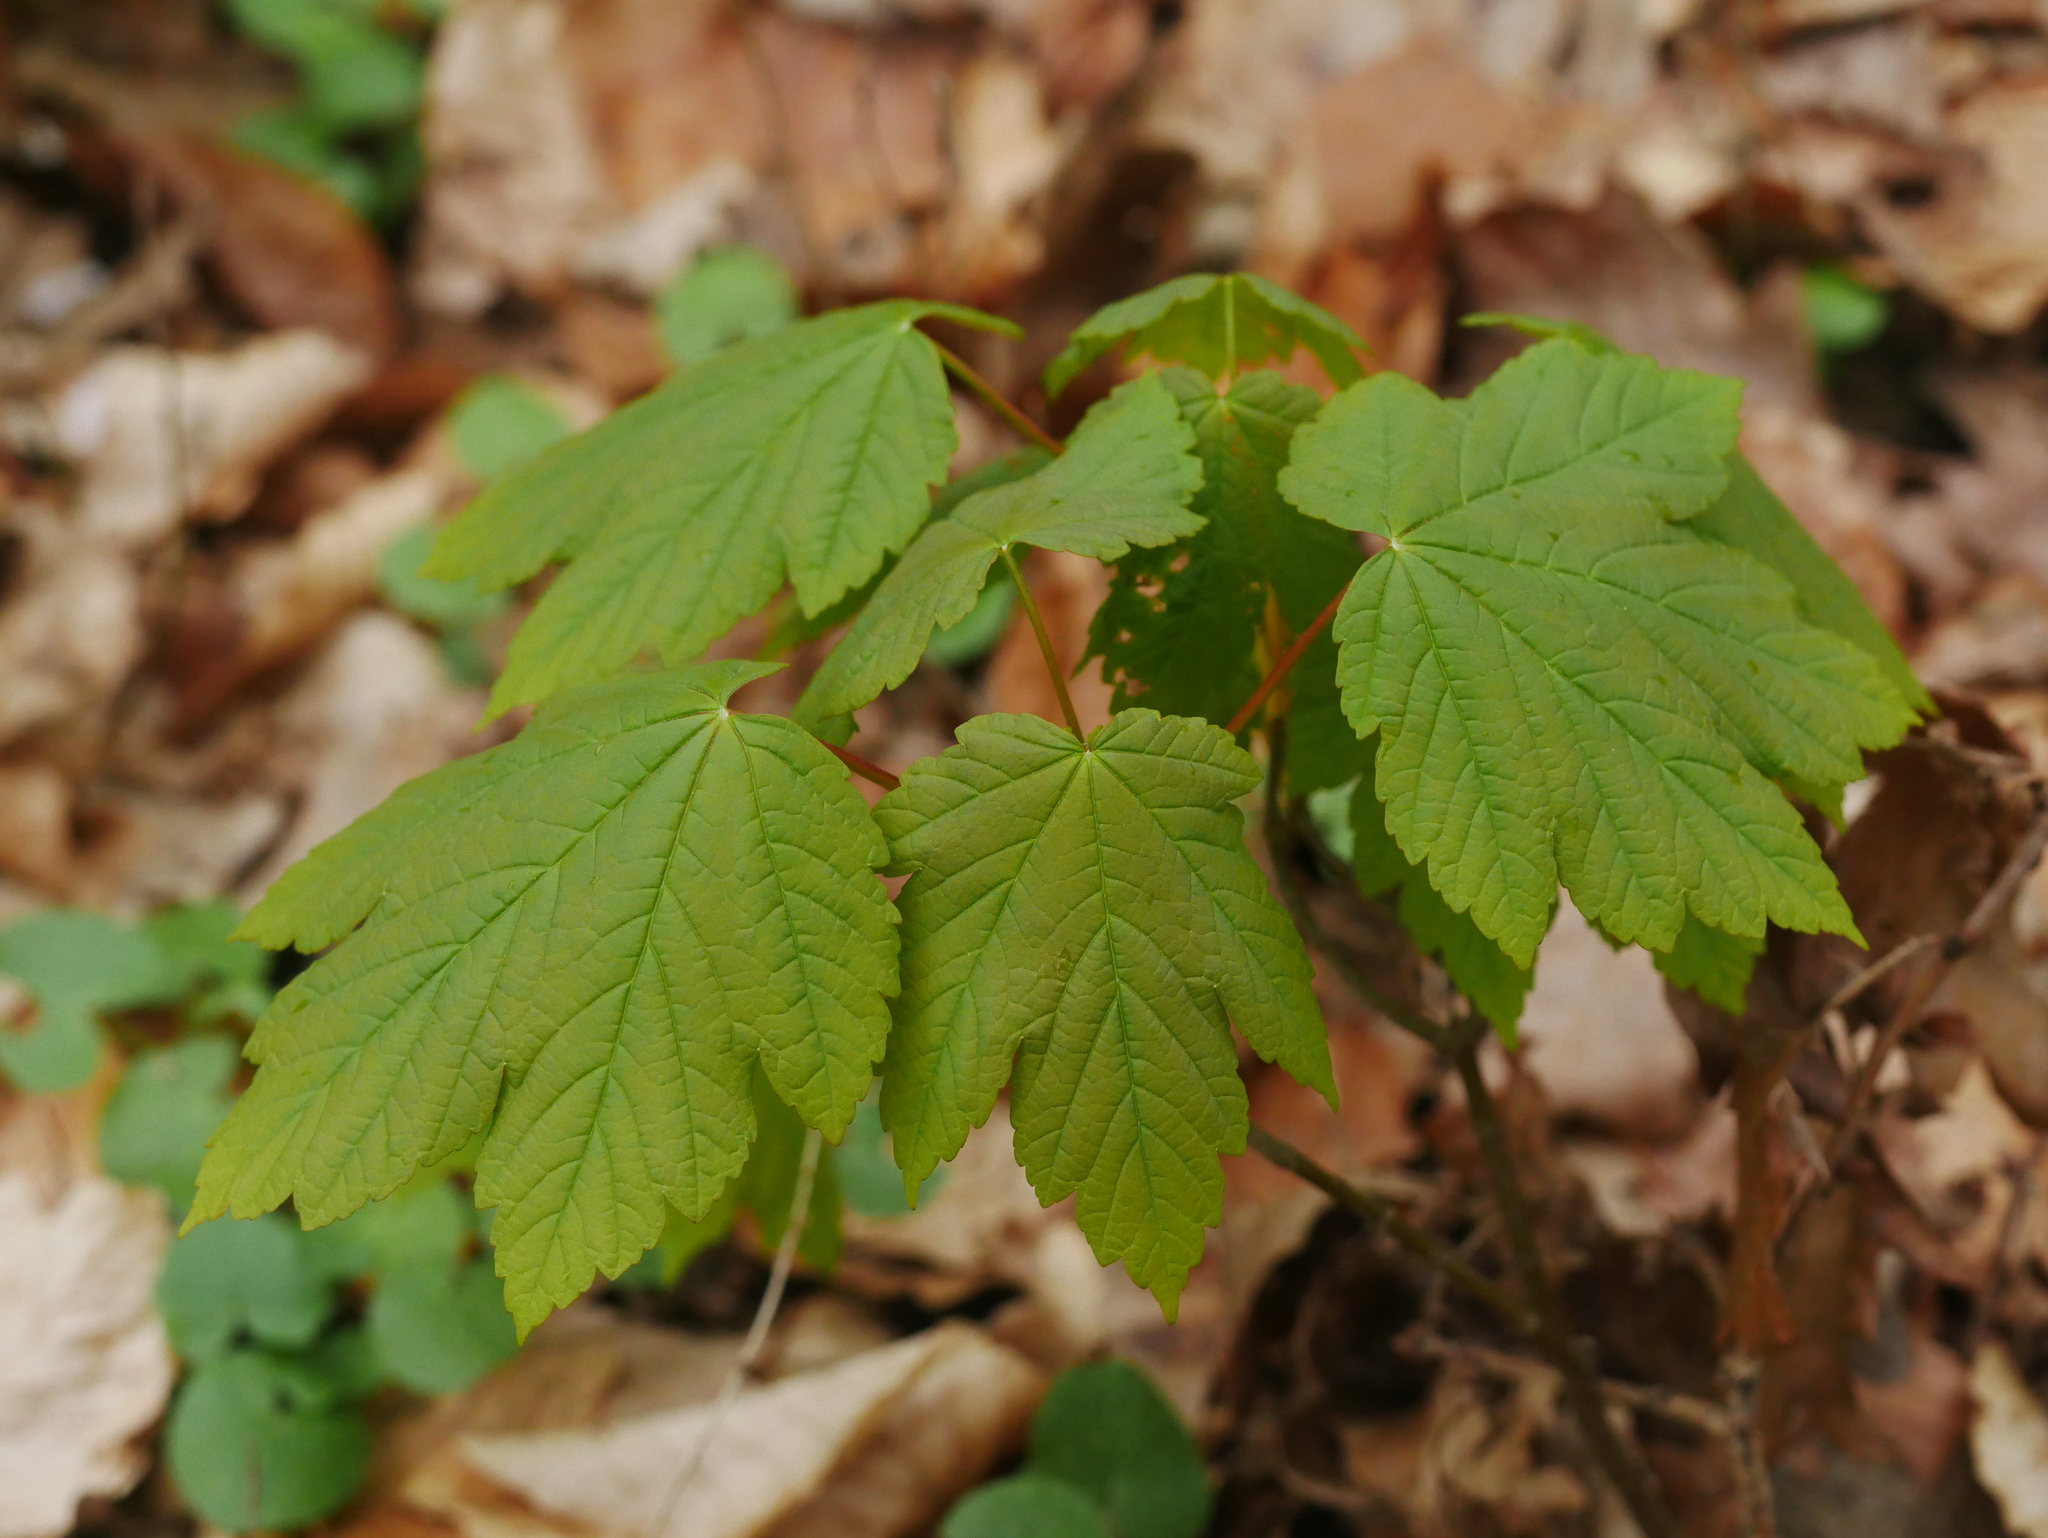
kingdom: Plantae
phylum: Tracheophyta
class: Magnoliopsida
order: Sapindales
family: Sapindaceae
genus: Acer
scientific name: Acer pseudoplatanus
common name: Sycamore
